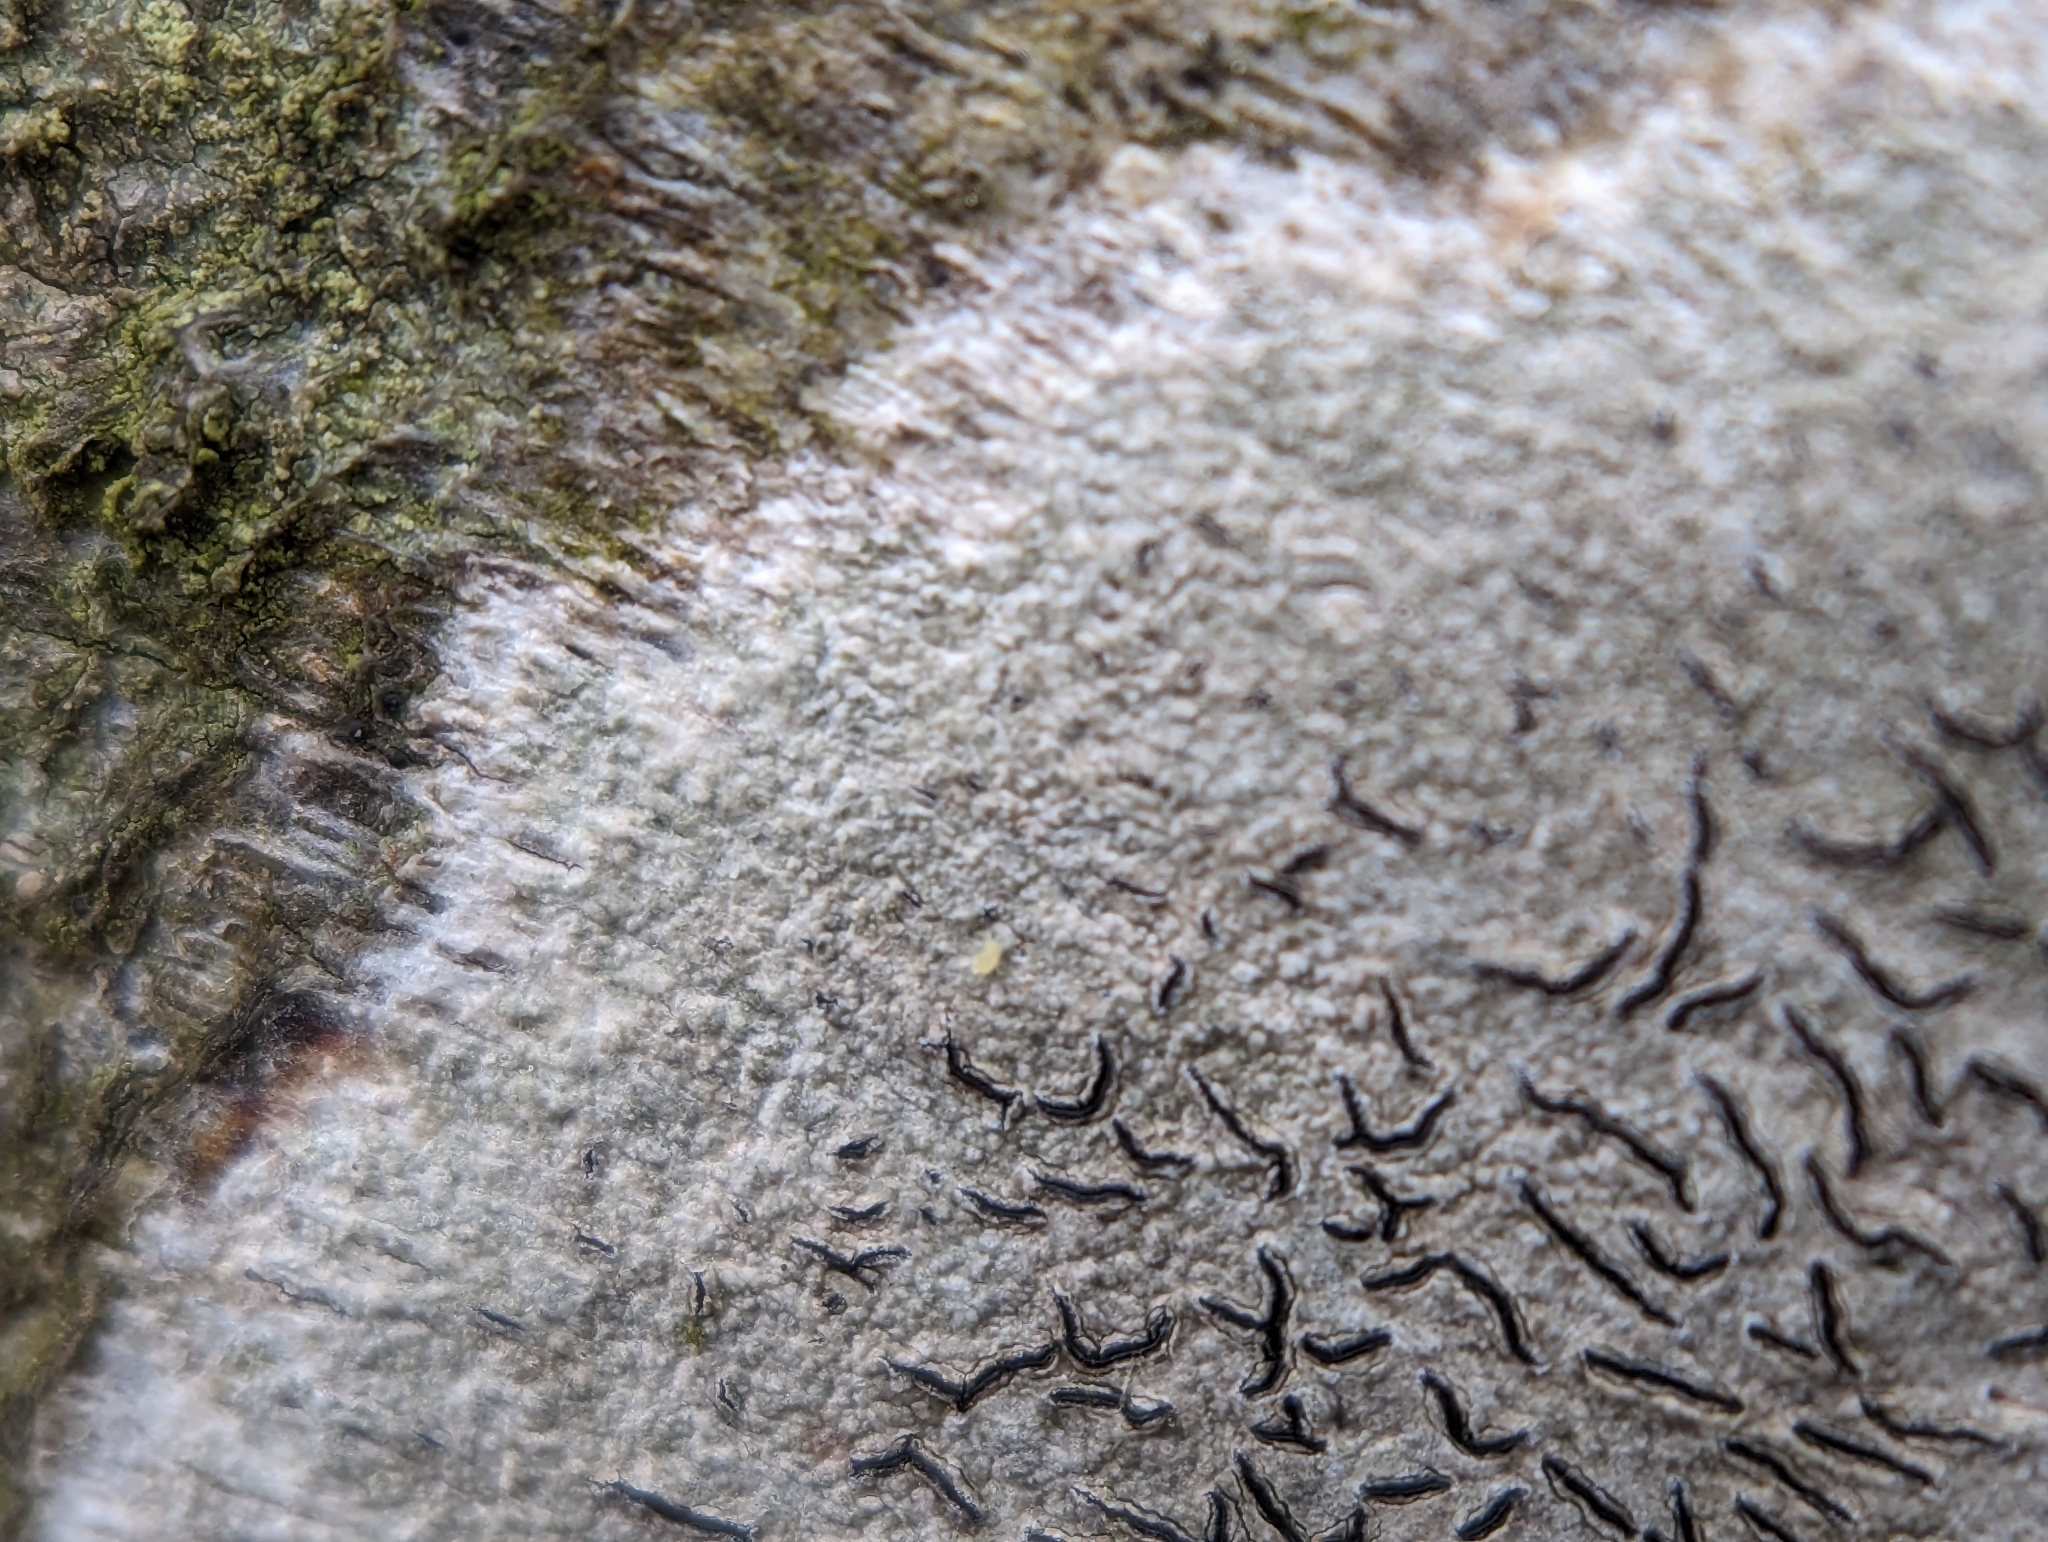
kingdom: Fungi
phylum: Ascomycota
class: Lecanoromycetes
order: Ostropales
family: Graphidaceae
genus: Graphis
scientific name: Graphis scripta
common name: Script lichen
